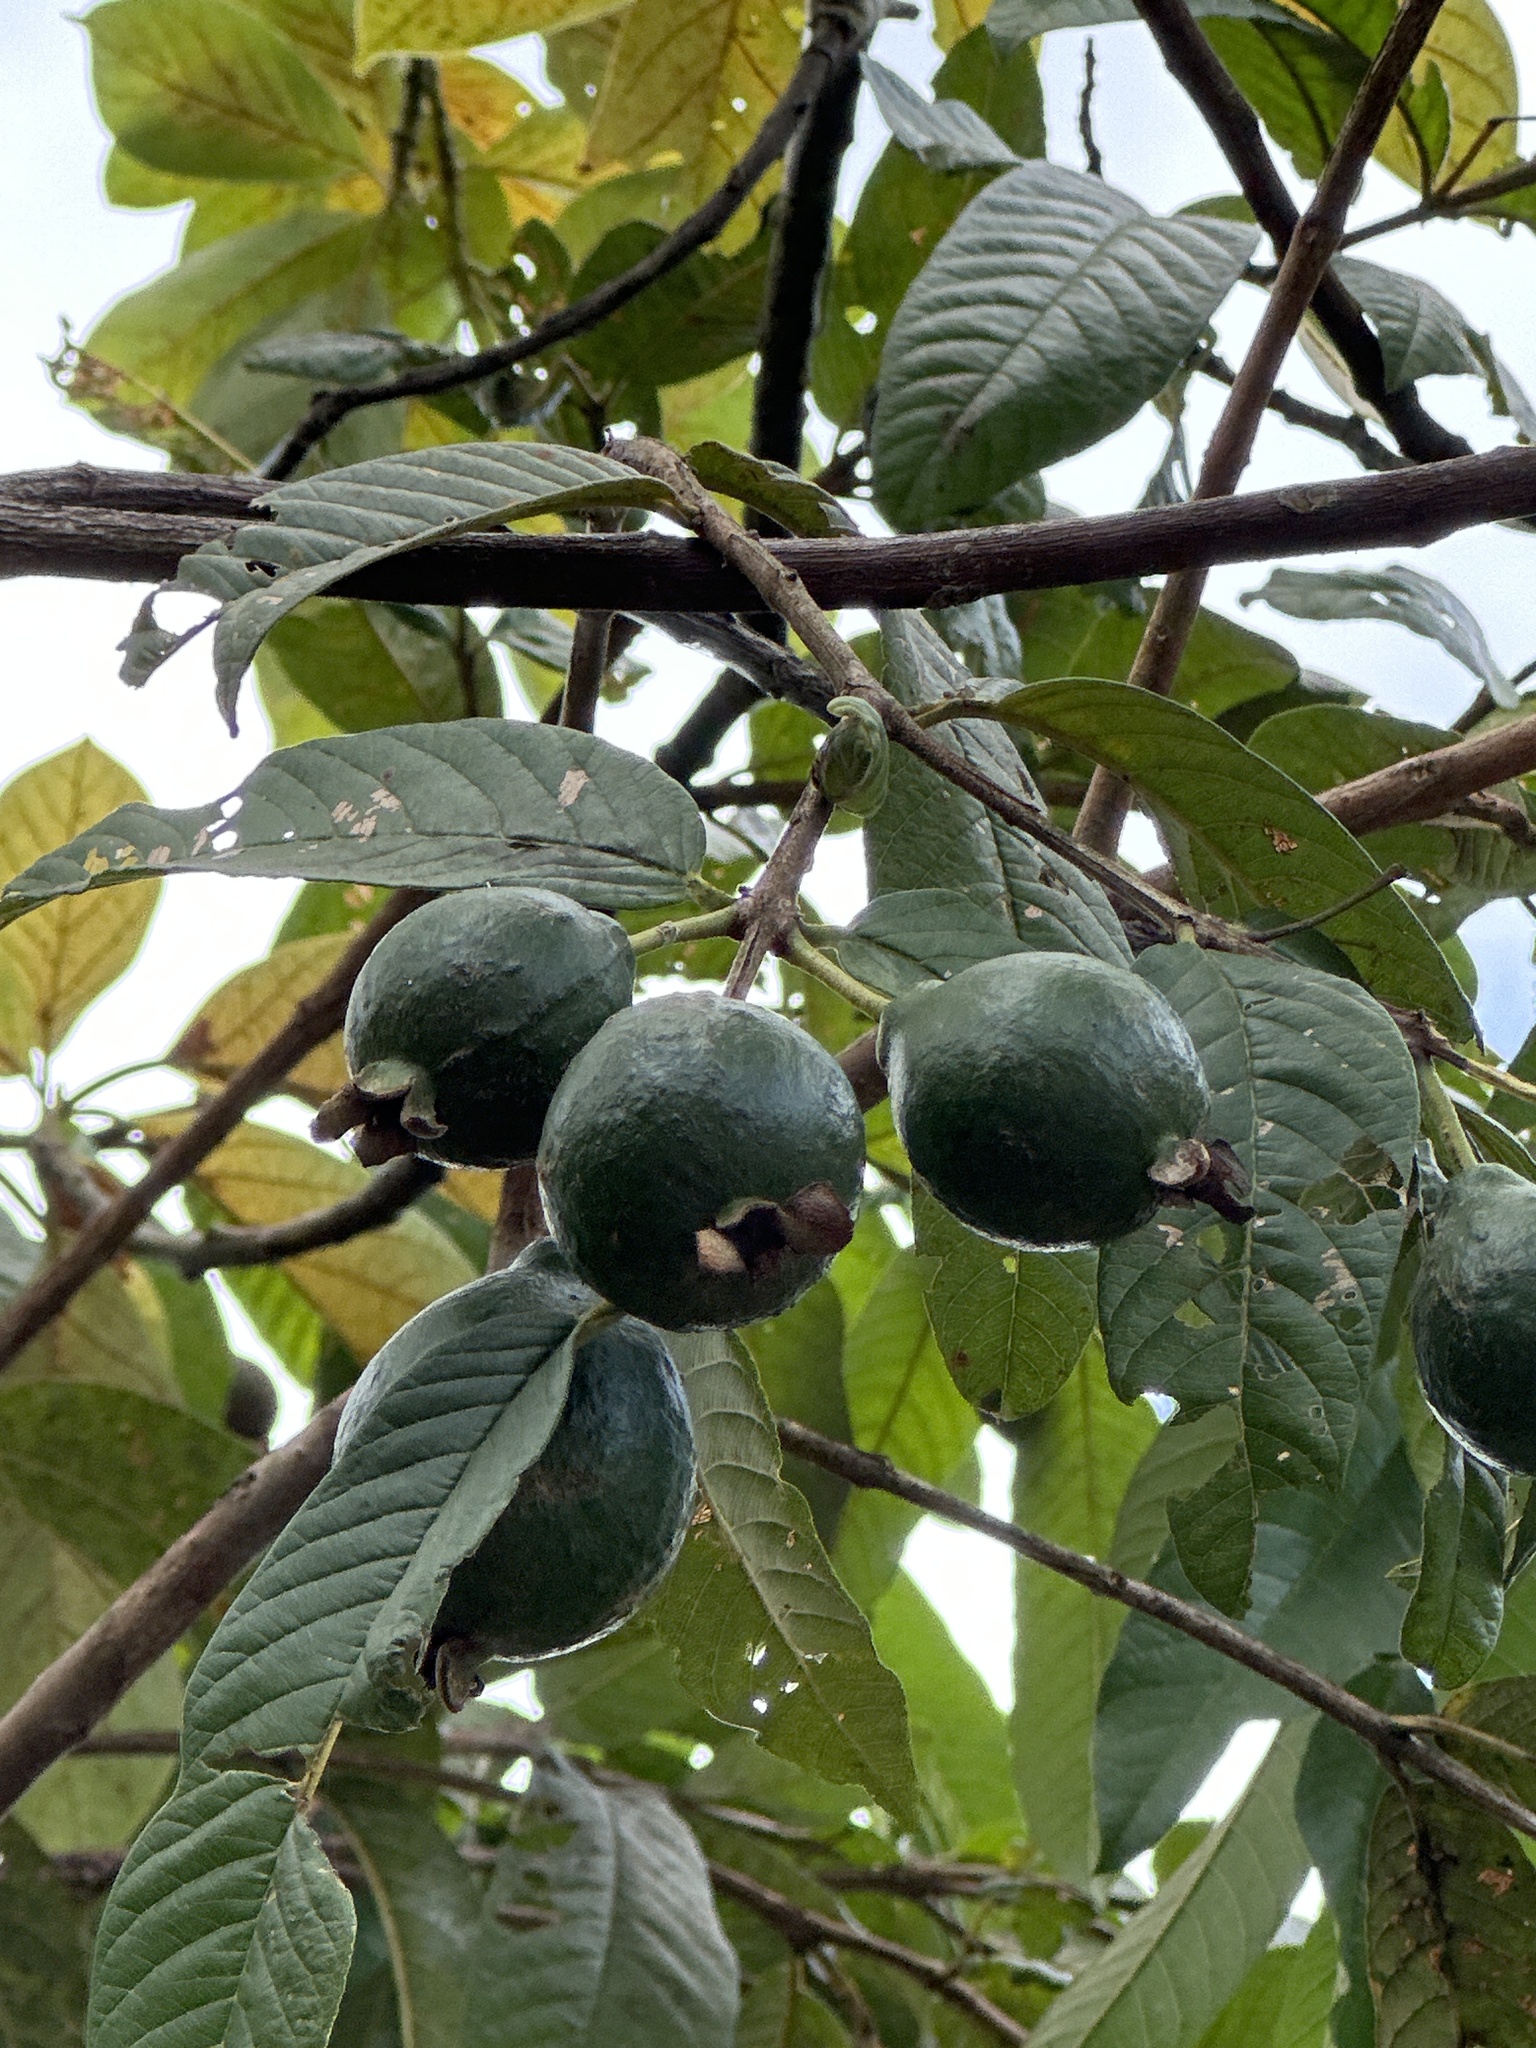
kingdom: Plantae
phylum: Tracheophyta
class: Magnoliopsida
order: Myrtales
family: Myrtaceae
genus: Psidium
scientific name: Psidium guajava
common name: Guava
